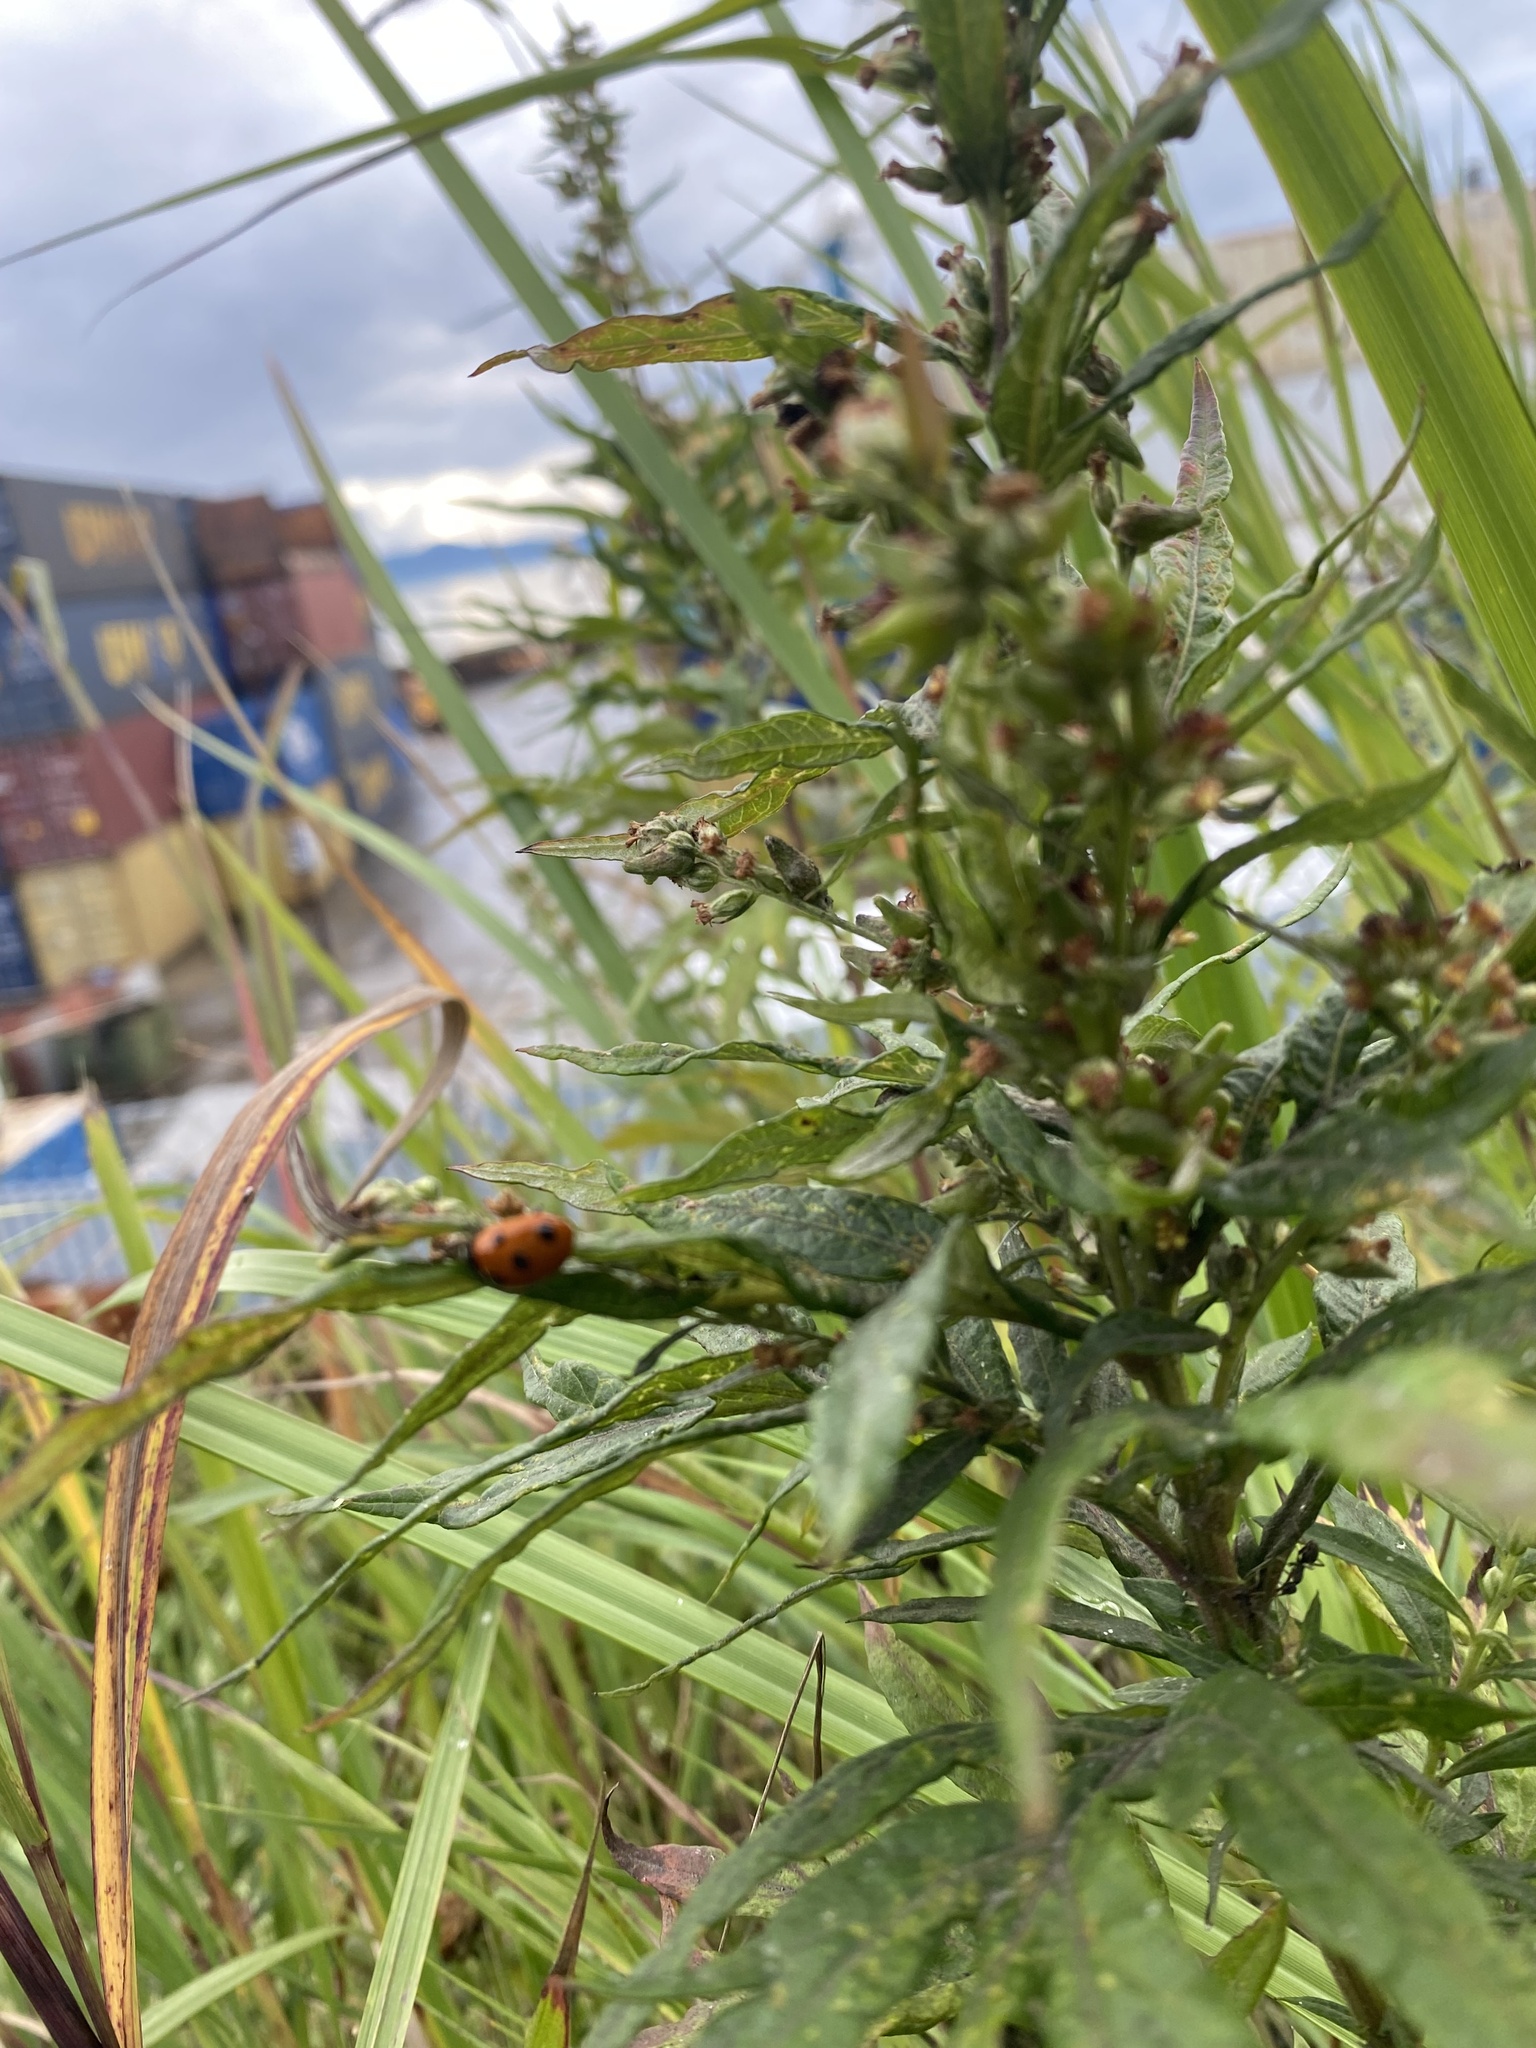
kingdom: Animalia
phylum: Arthropoda
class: Insecta
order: Coleoptera
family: Coccinellidae
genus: Coccinella
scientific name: Coccinella septempunctata
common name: Sevenspotted lady beetle
